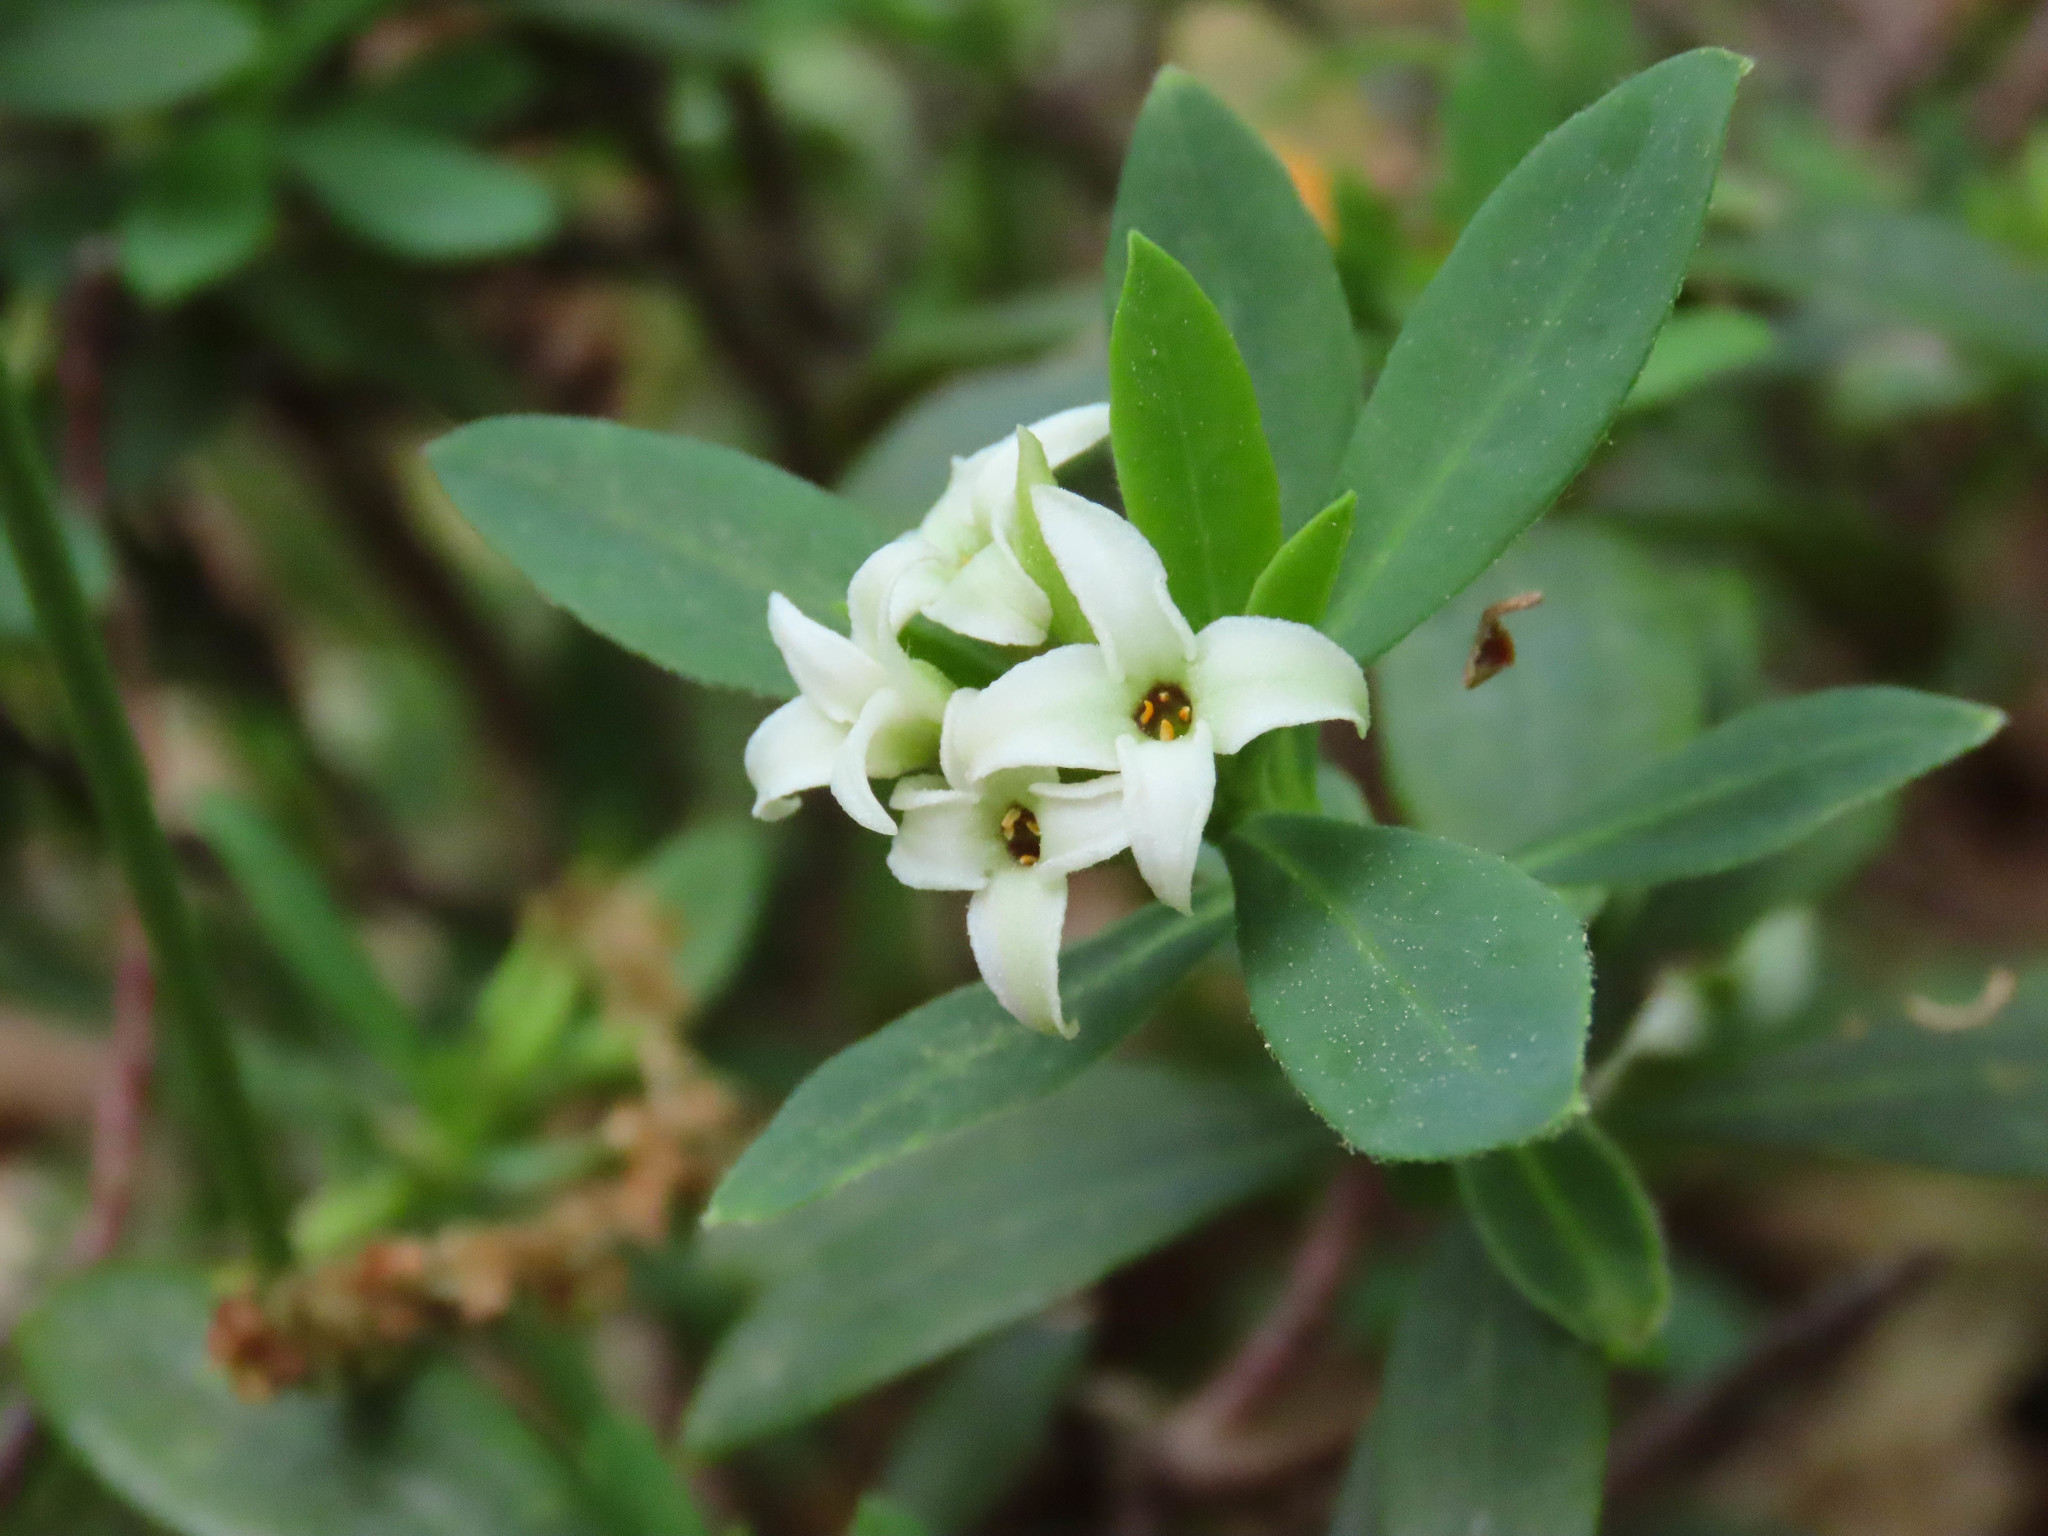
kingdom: Plantae
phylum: Tracheophyta
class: Magnoliopsida
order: Malvales
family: Thymelaeaceae
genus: Daphne
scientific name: Daphne oleoides
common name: Spurge-olive
